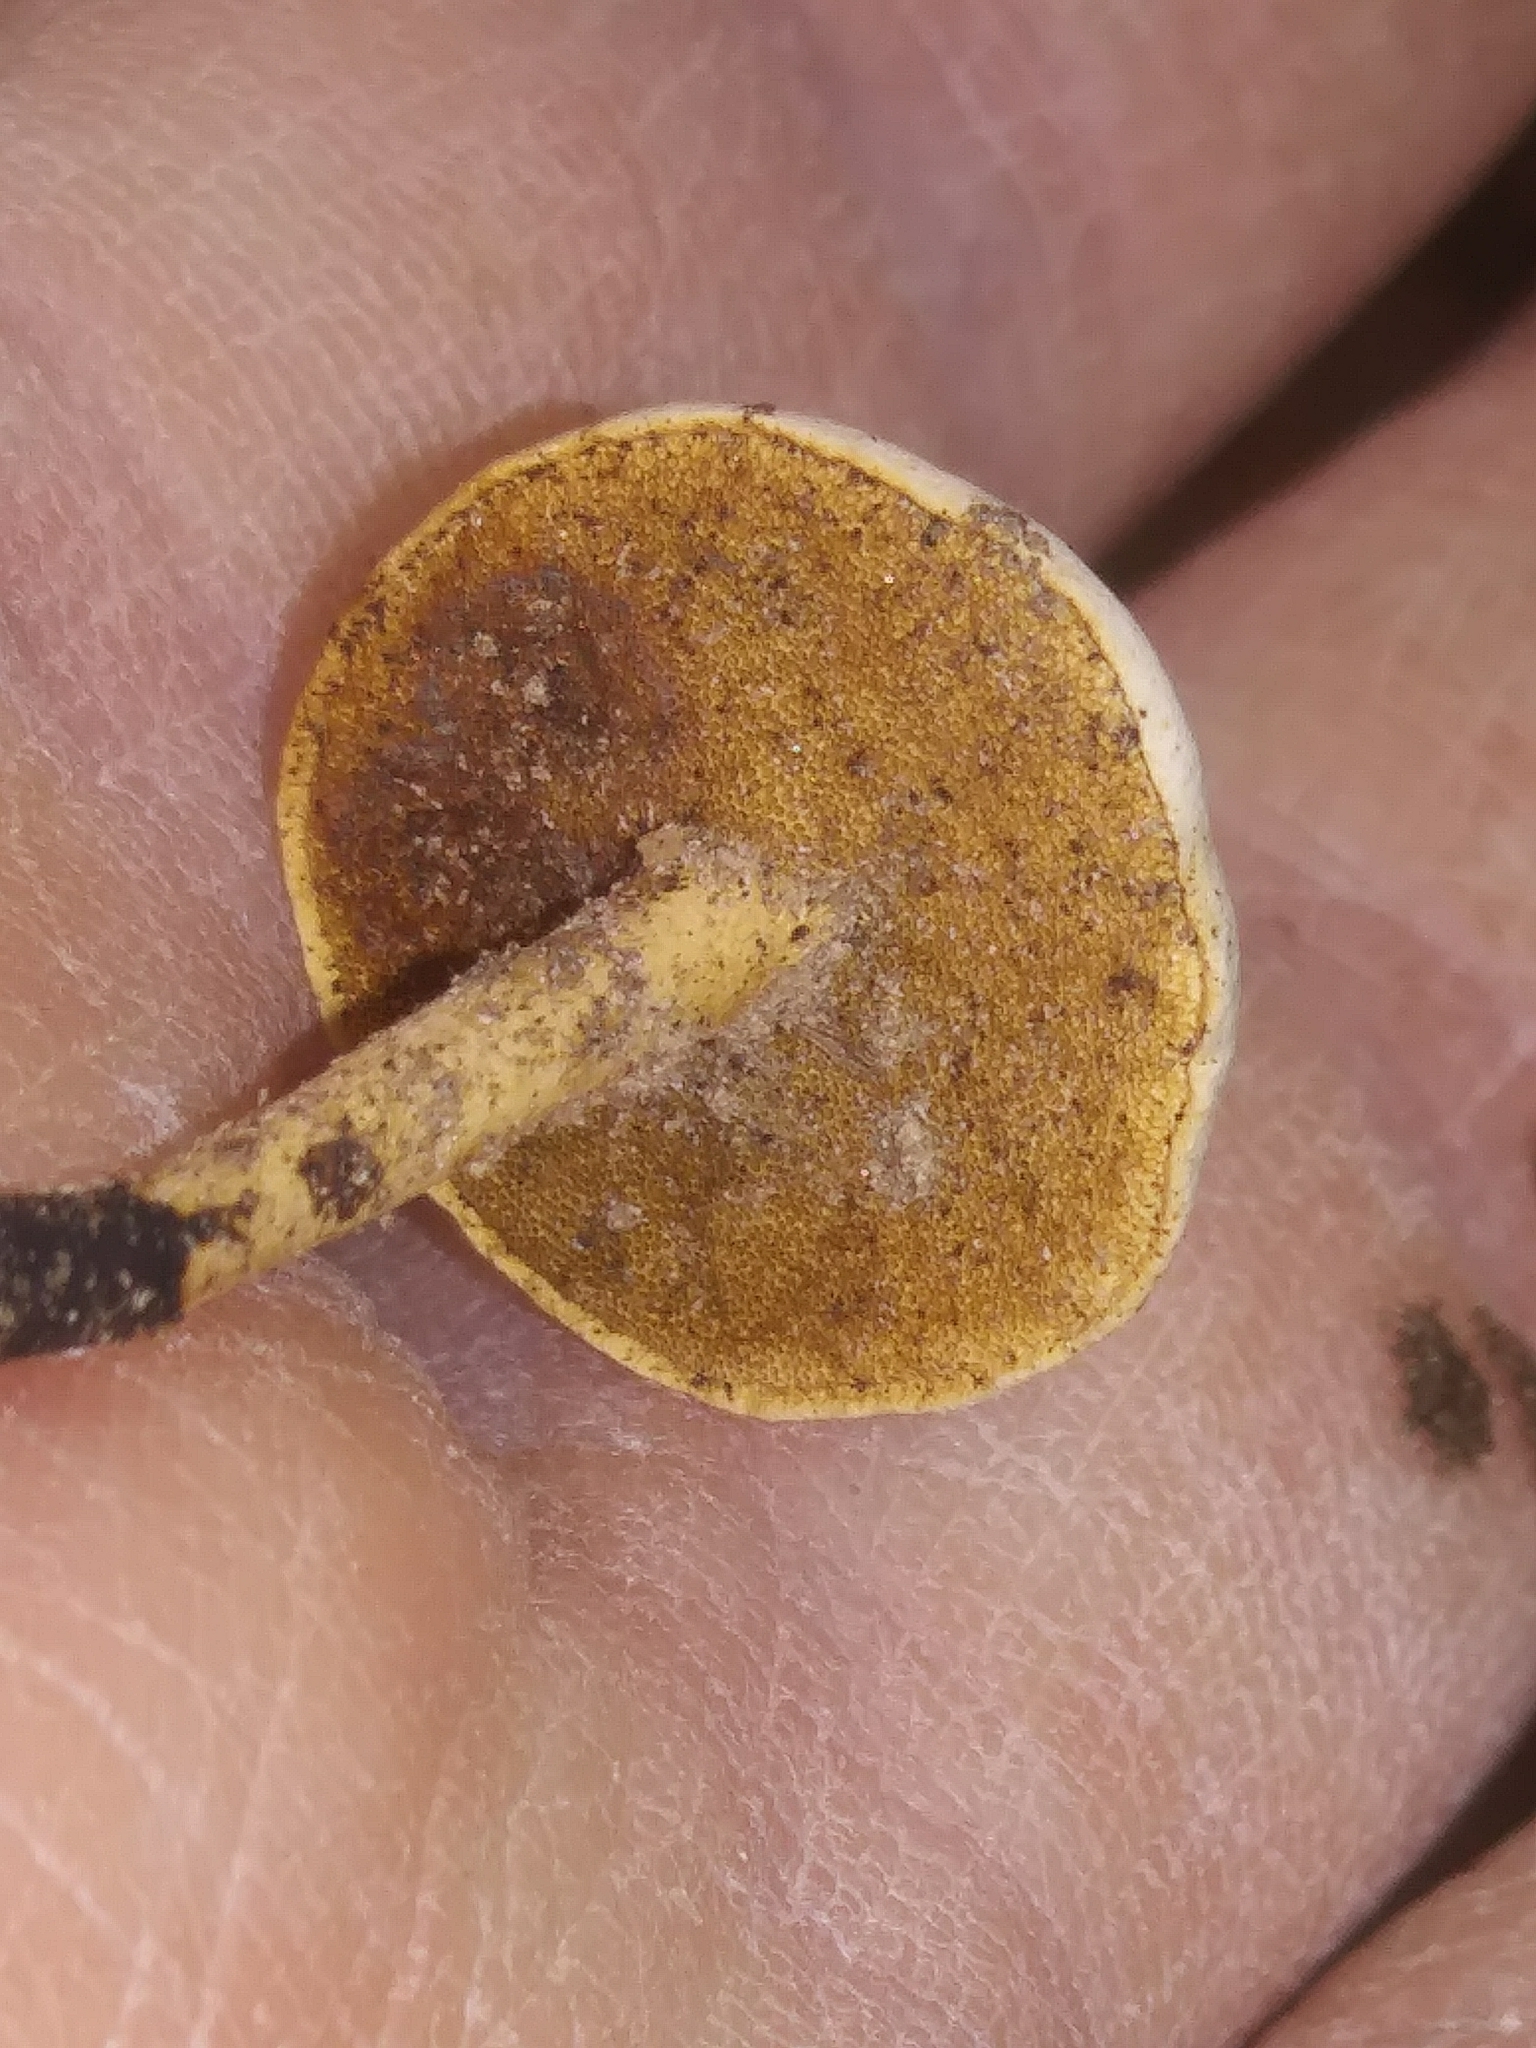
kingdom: Fungi
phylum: Basidiomycota
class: Agaricomycetes
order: Polyporales
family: Polyporaceae
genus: Cerioporus
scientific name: Cerioporus leptocephalus
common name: Blackfoot polypore
